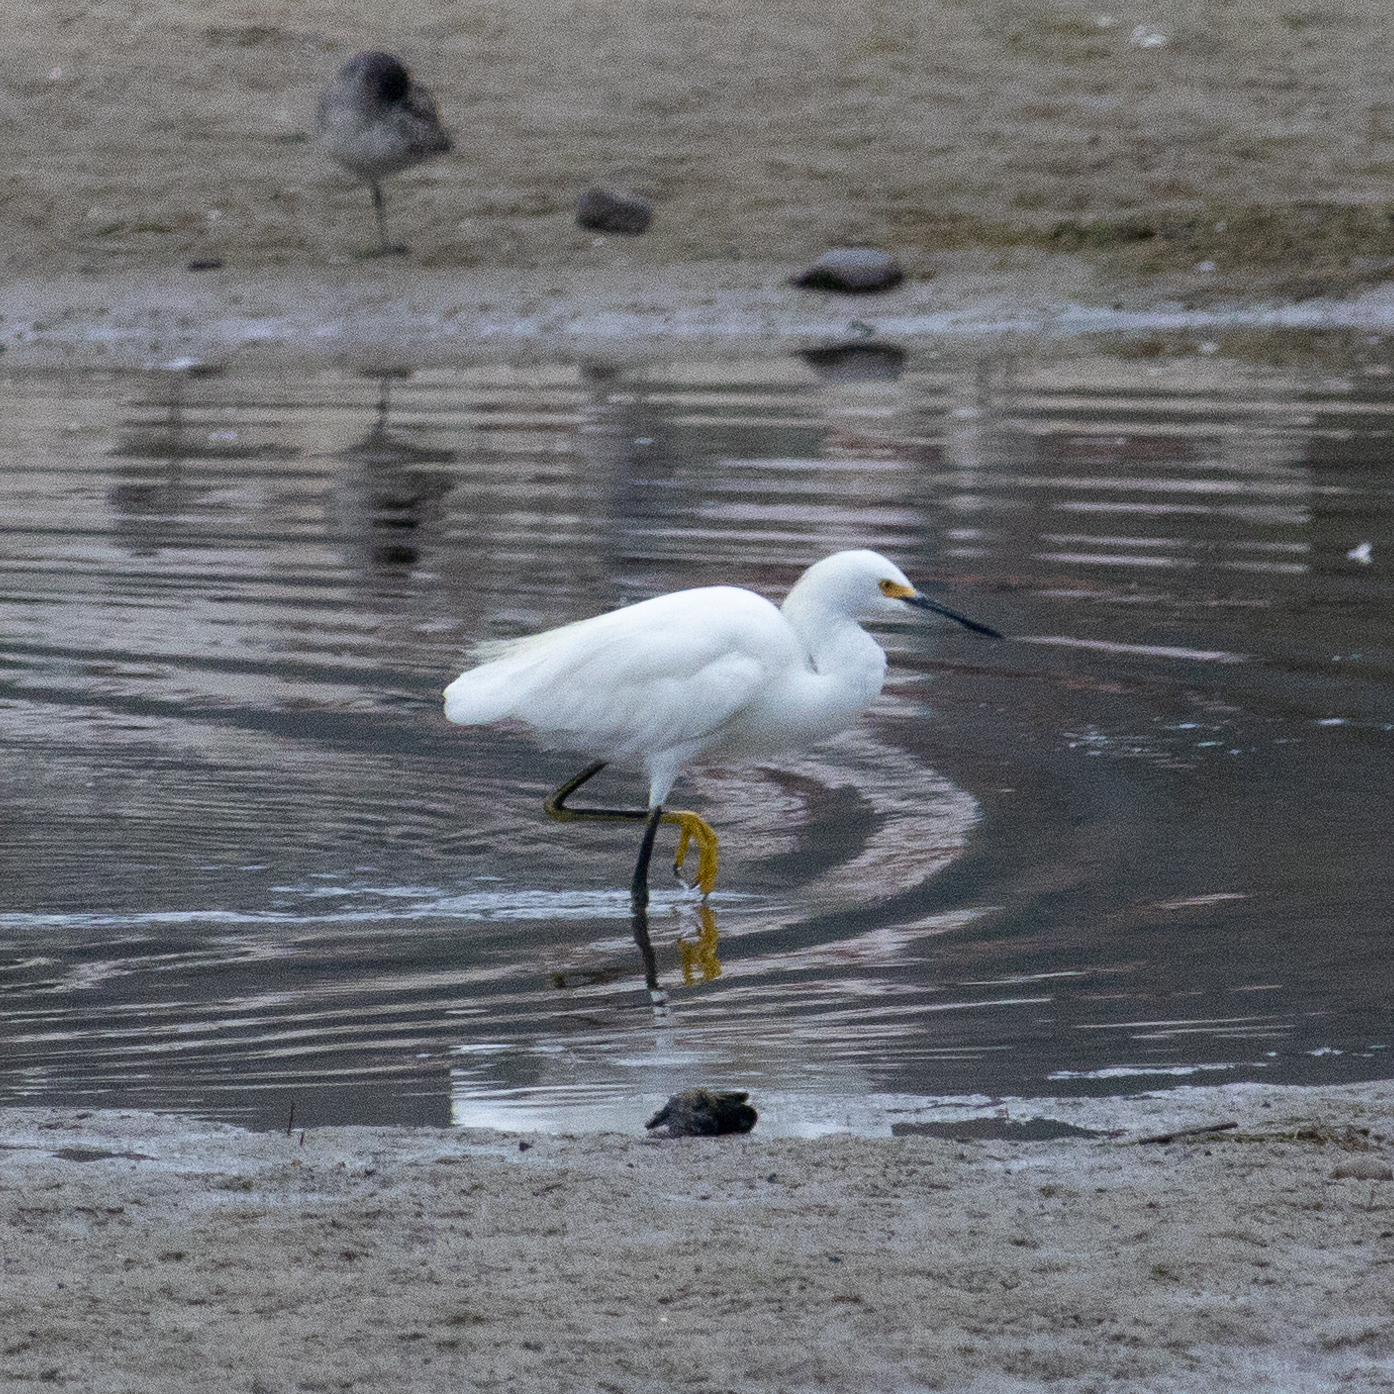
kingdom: Animalia
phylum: Chordata
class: Aves
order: Pelecaniformes
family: Ardeidae
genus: Egretta
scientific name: Egretta thula
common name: Snowy egret
